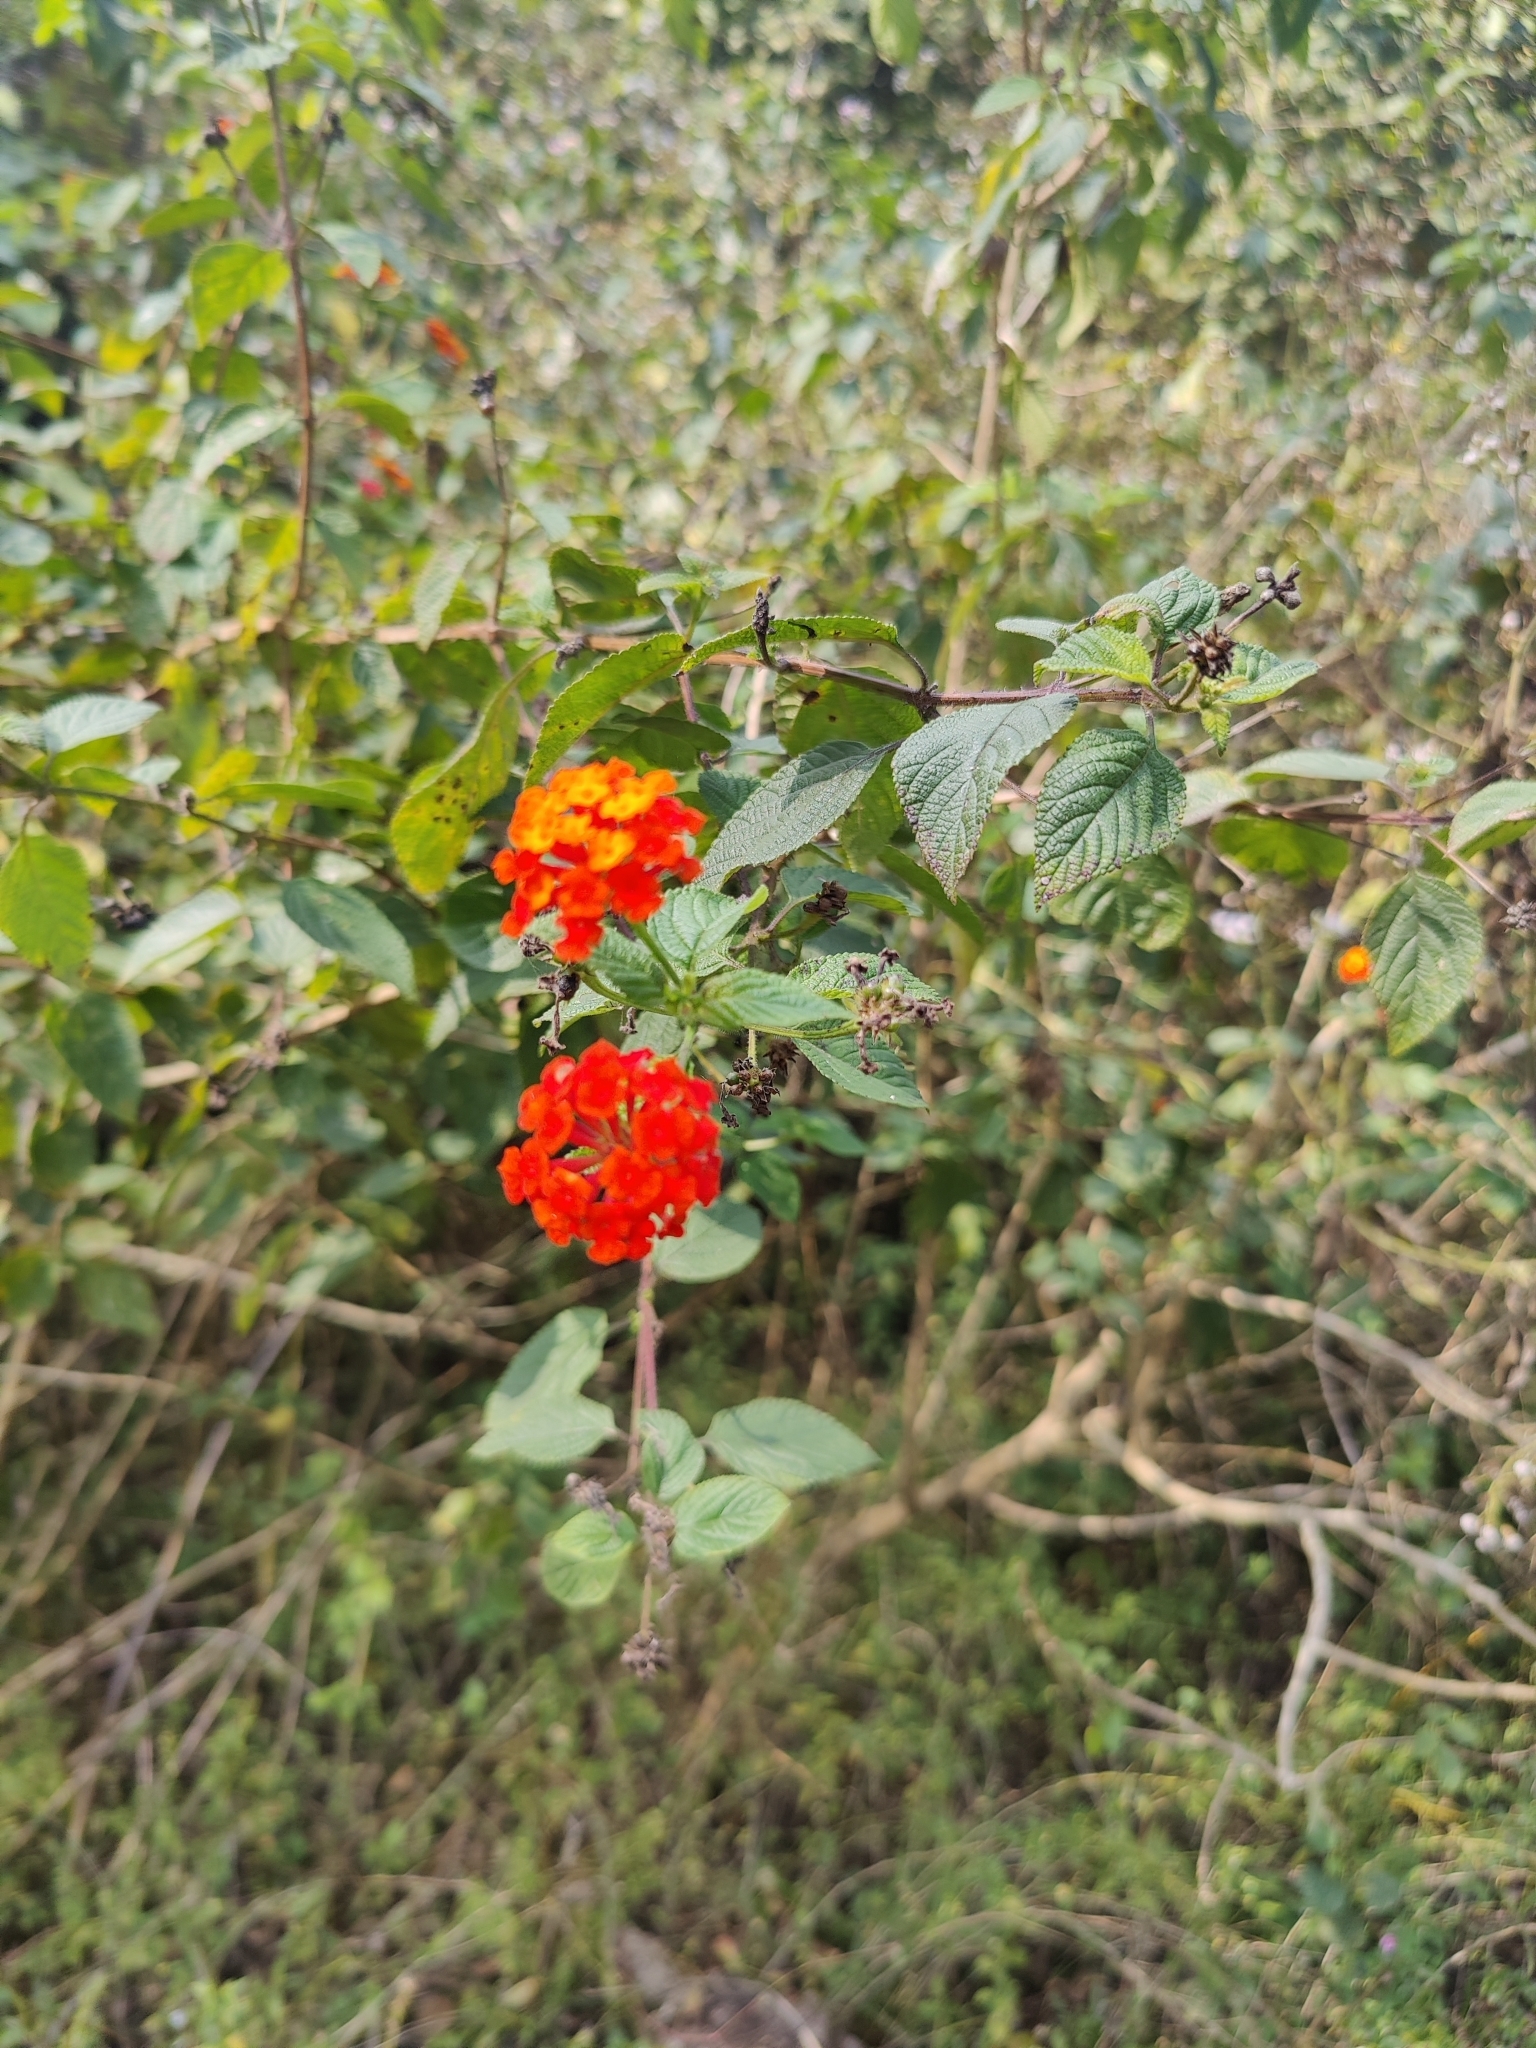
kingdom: Plantae
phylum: Tracheophyta
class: Magnoliopsida
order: Lamiales
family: Verbenaceae
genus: Lantana
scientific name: Lantana camara
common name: Lantana
